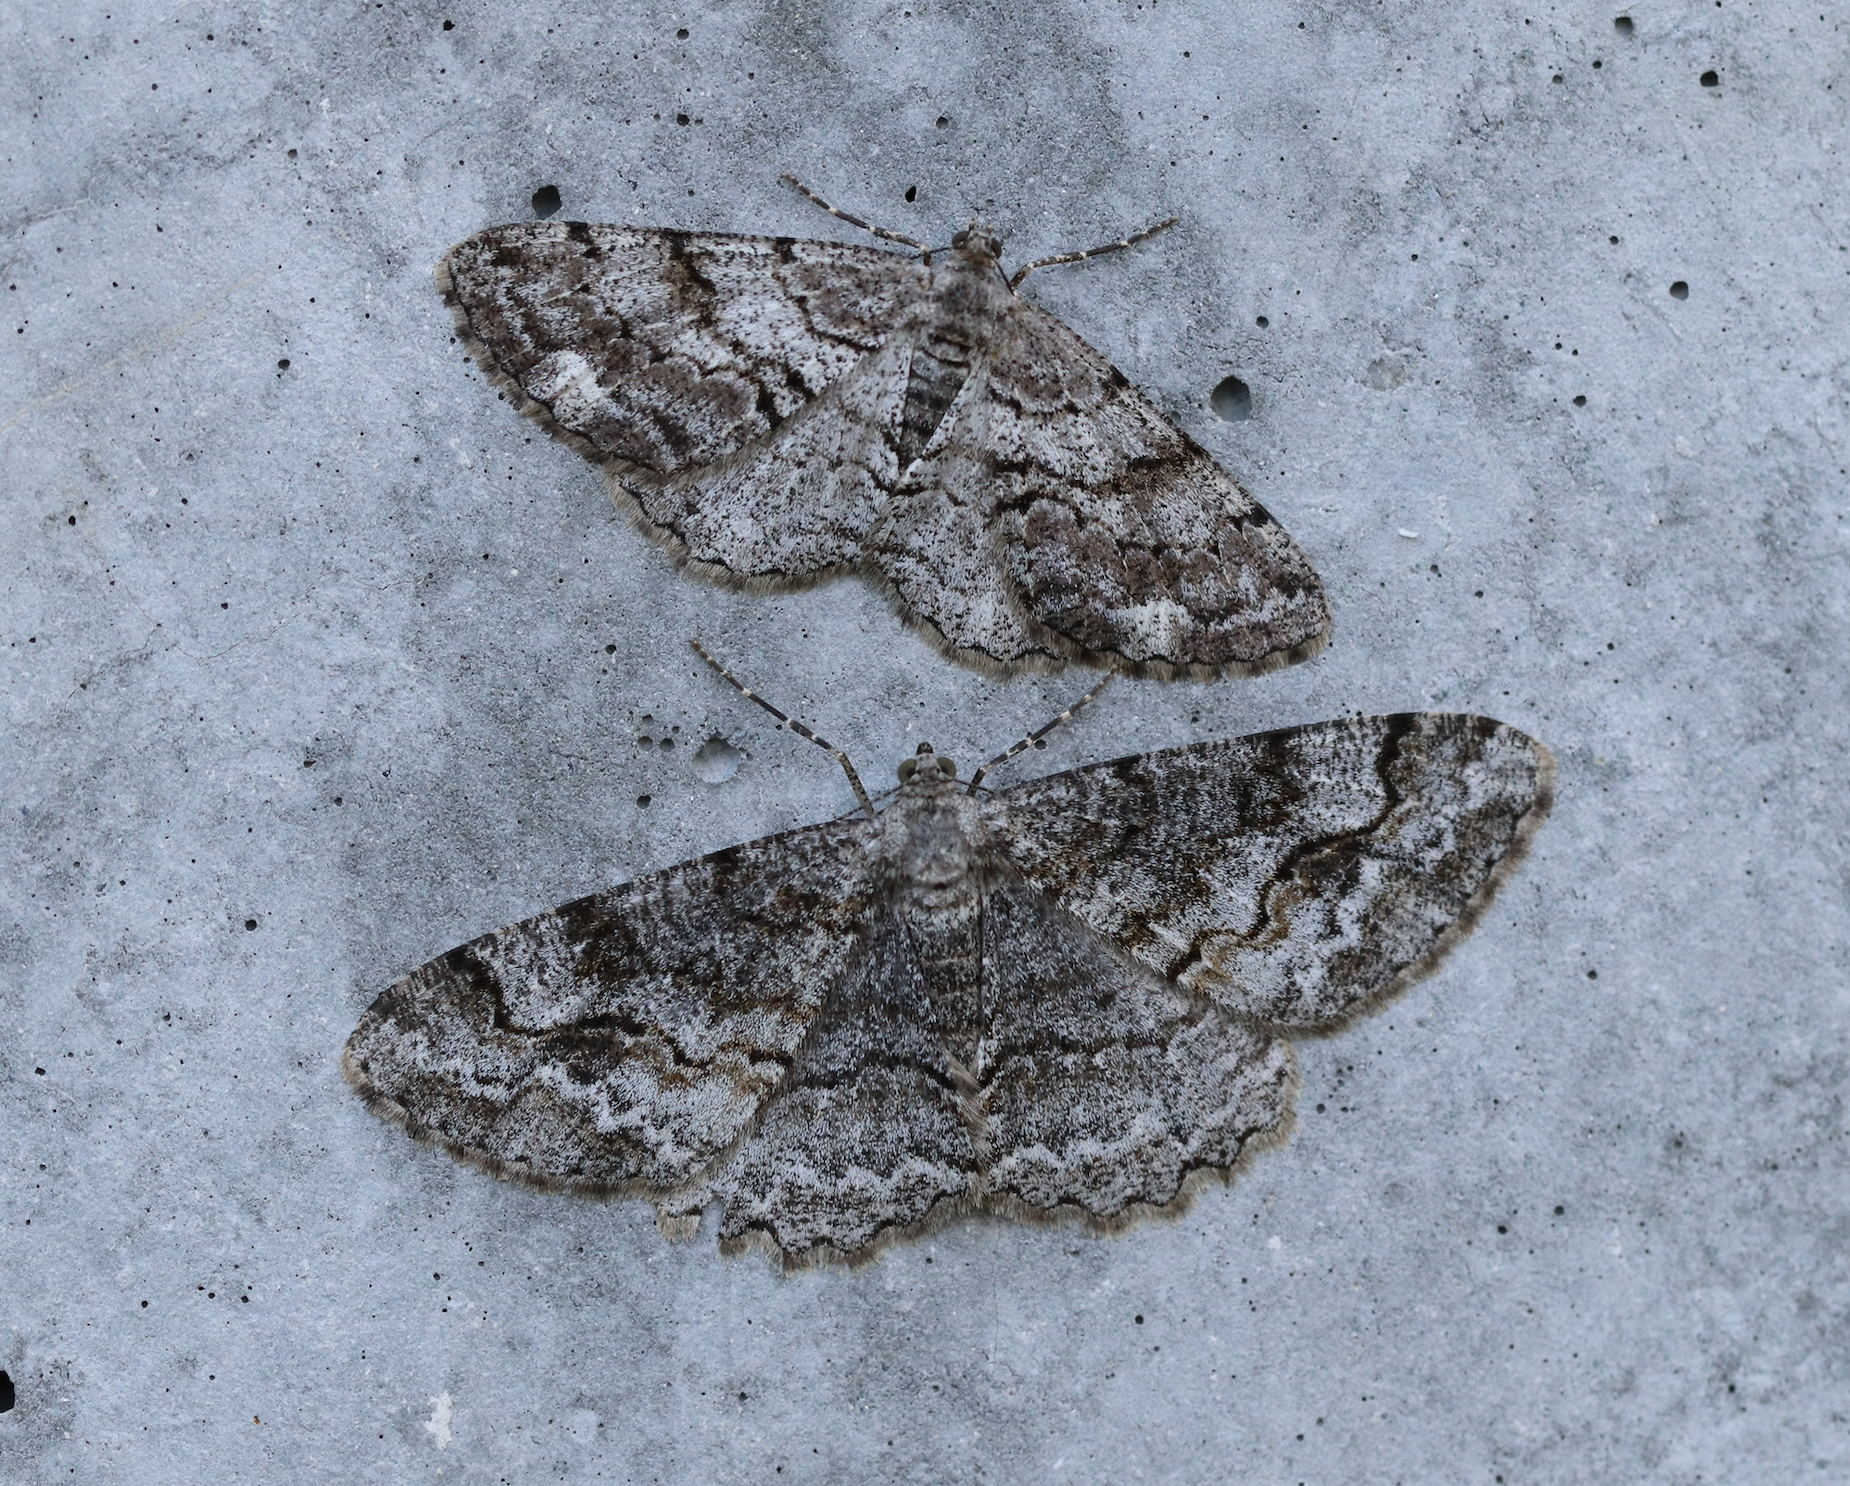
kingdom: Animalia
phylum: Arthropoda
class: Insecta
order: Lepidoptera
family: Geometridae
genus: Alcis
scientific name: Alcis repandata
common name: Mottled beauty
